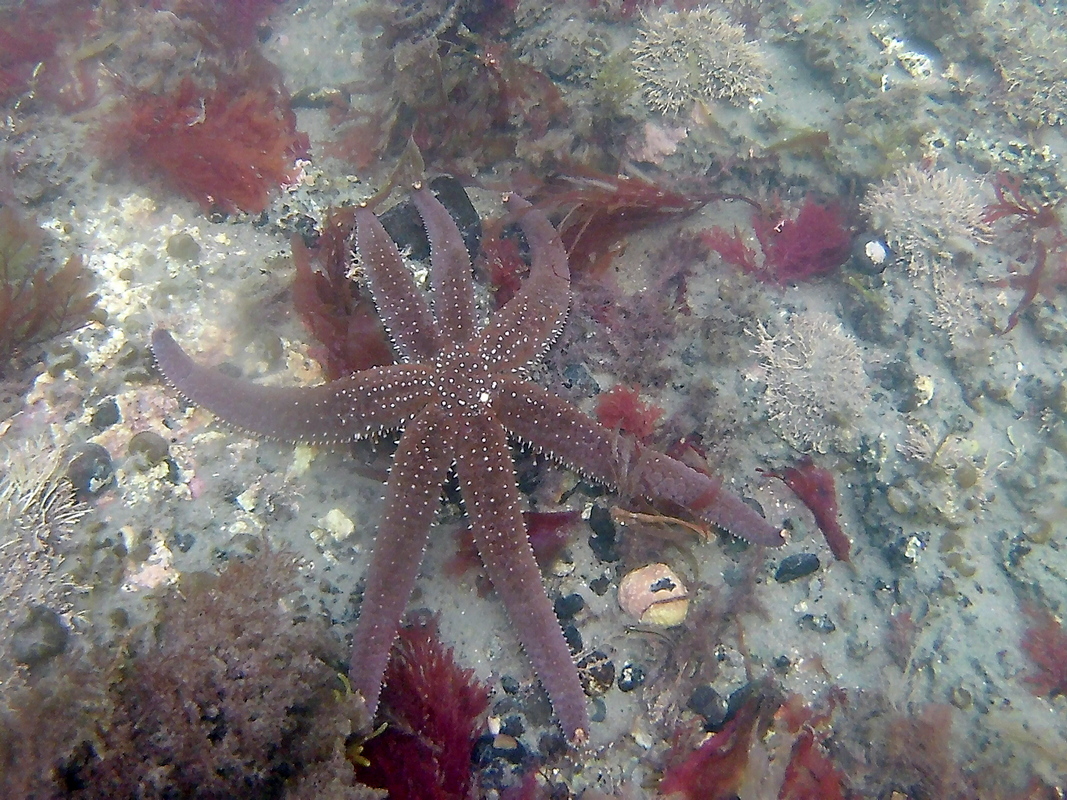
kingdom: Animalia
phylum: Echinodermata
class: Asteroidea
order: Forcipulatida
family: Asteriidae
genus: Astrostole
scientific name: Astrostole scabra
